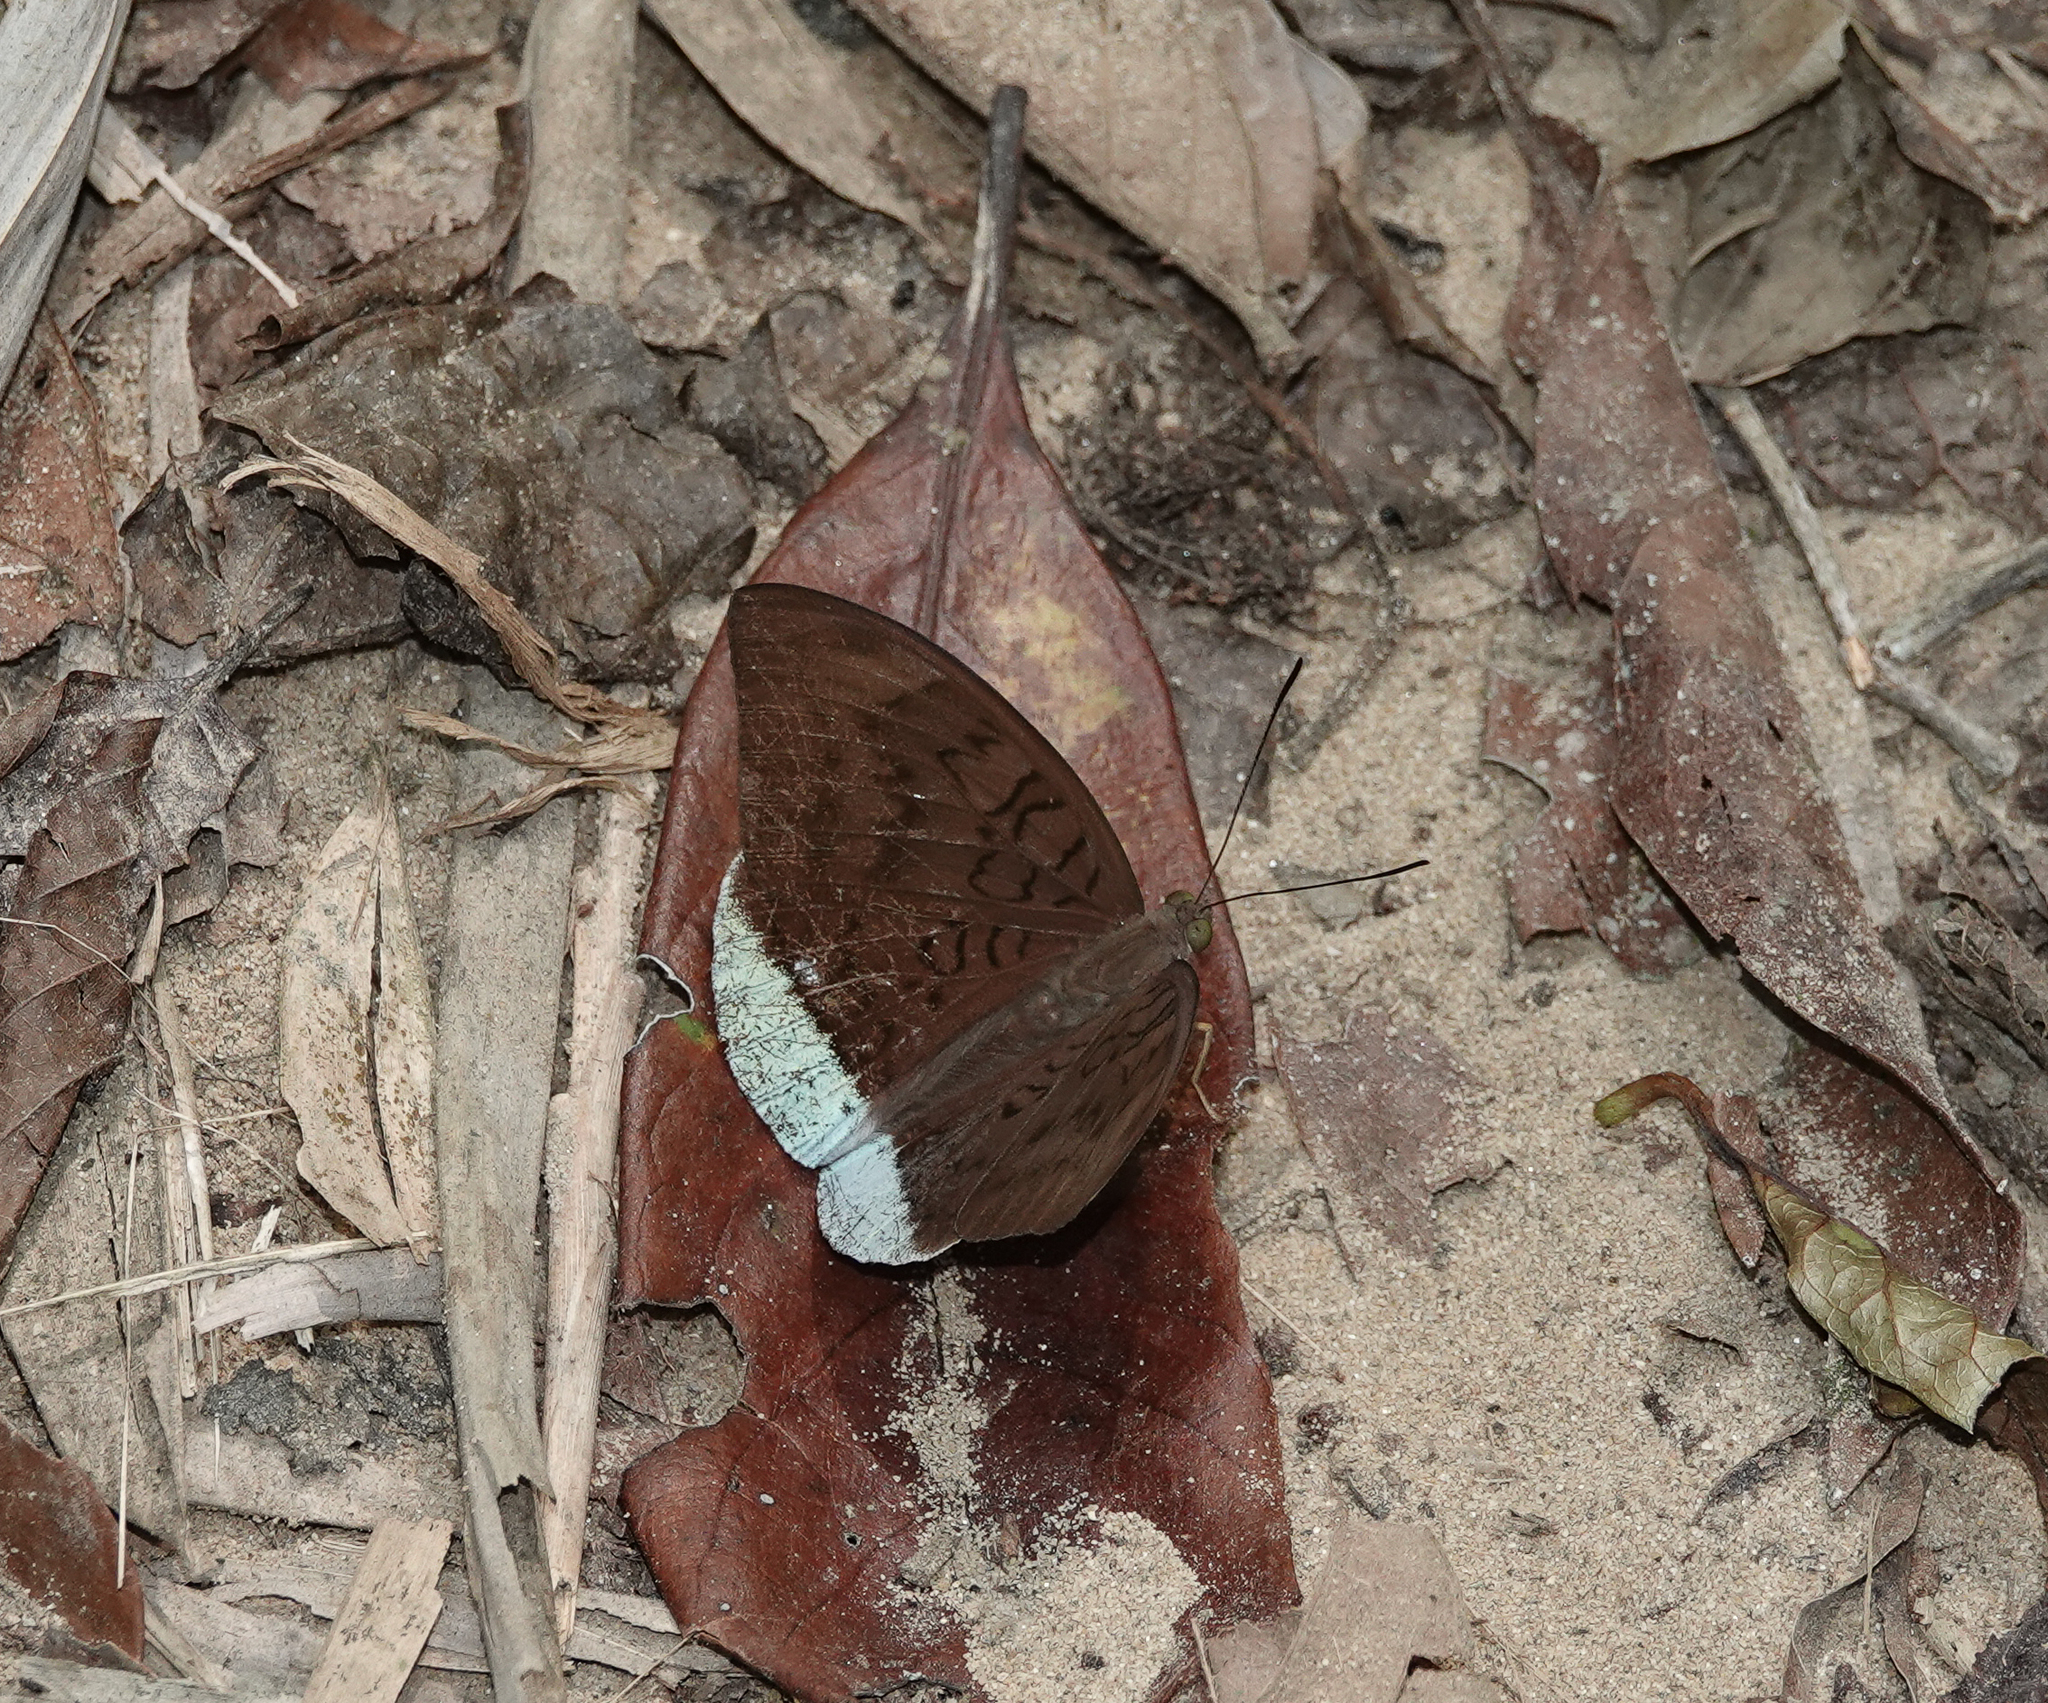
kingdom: Animalia
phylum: Arthropoda
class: Insecta
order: Lepidoptera
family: Nymphalidae
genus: Tanaecia
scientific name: Tanaecia julii
